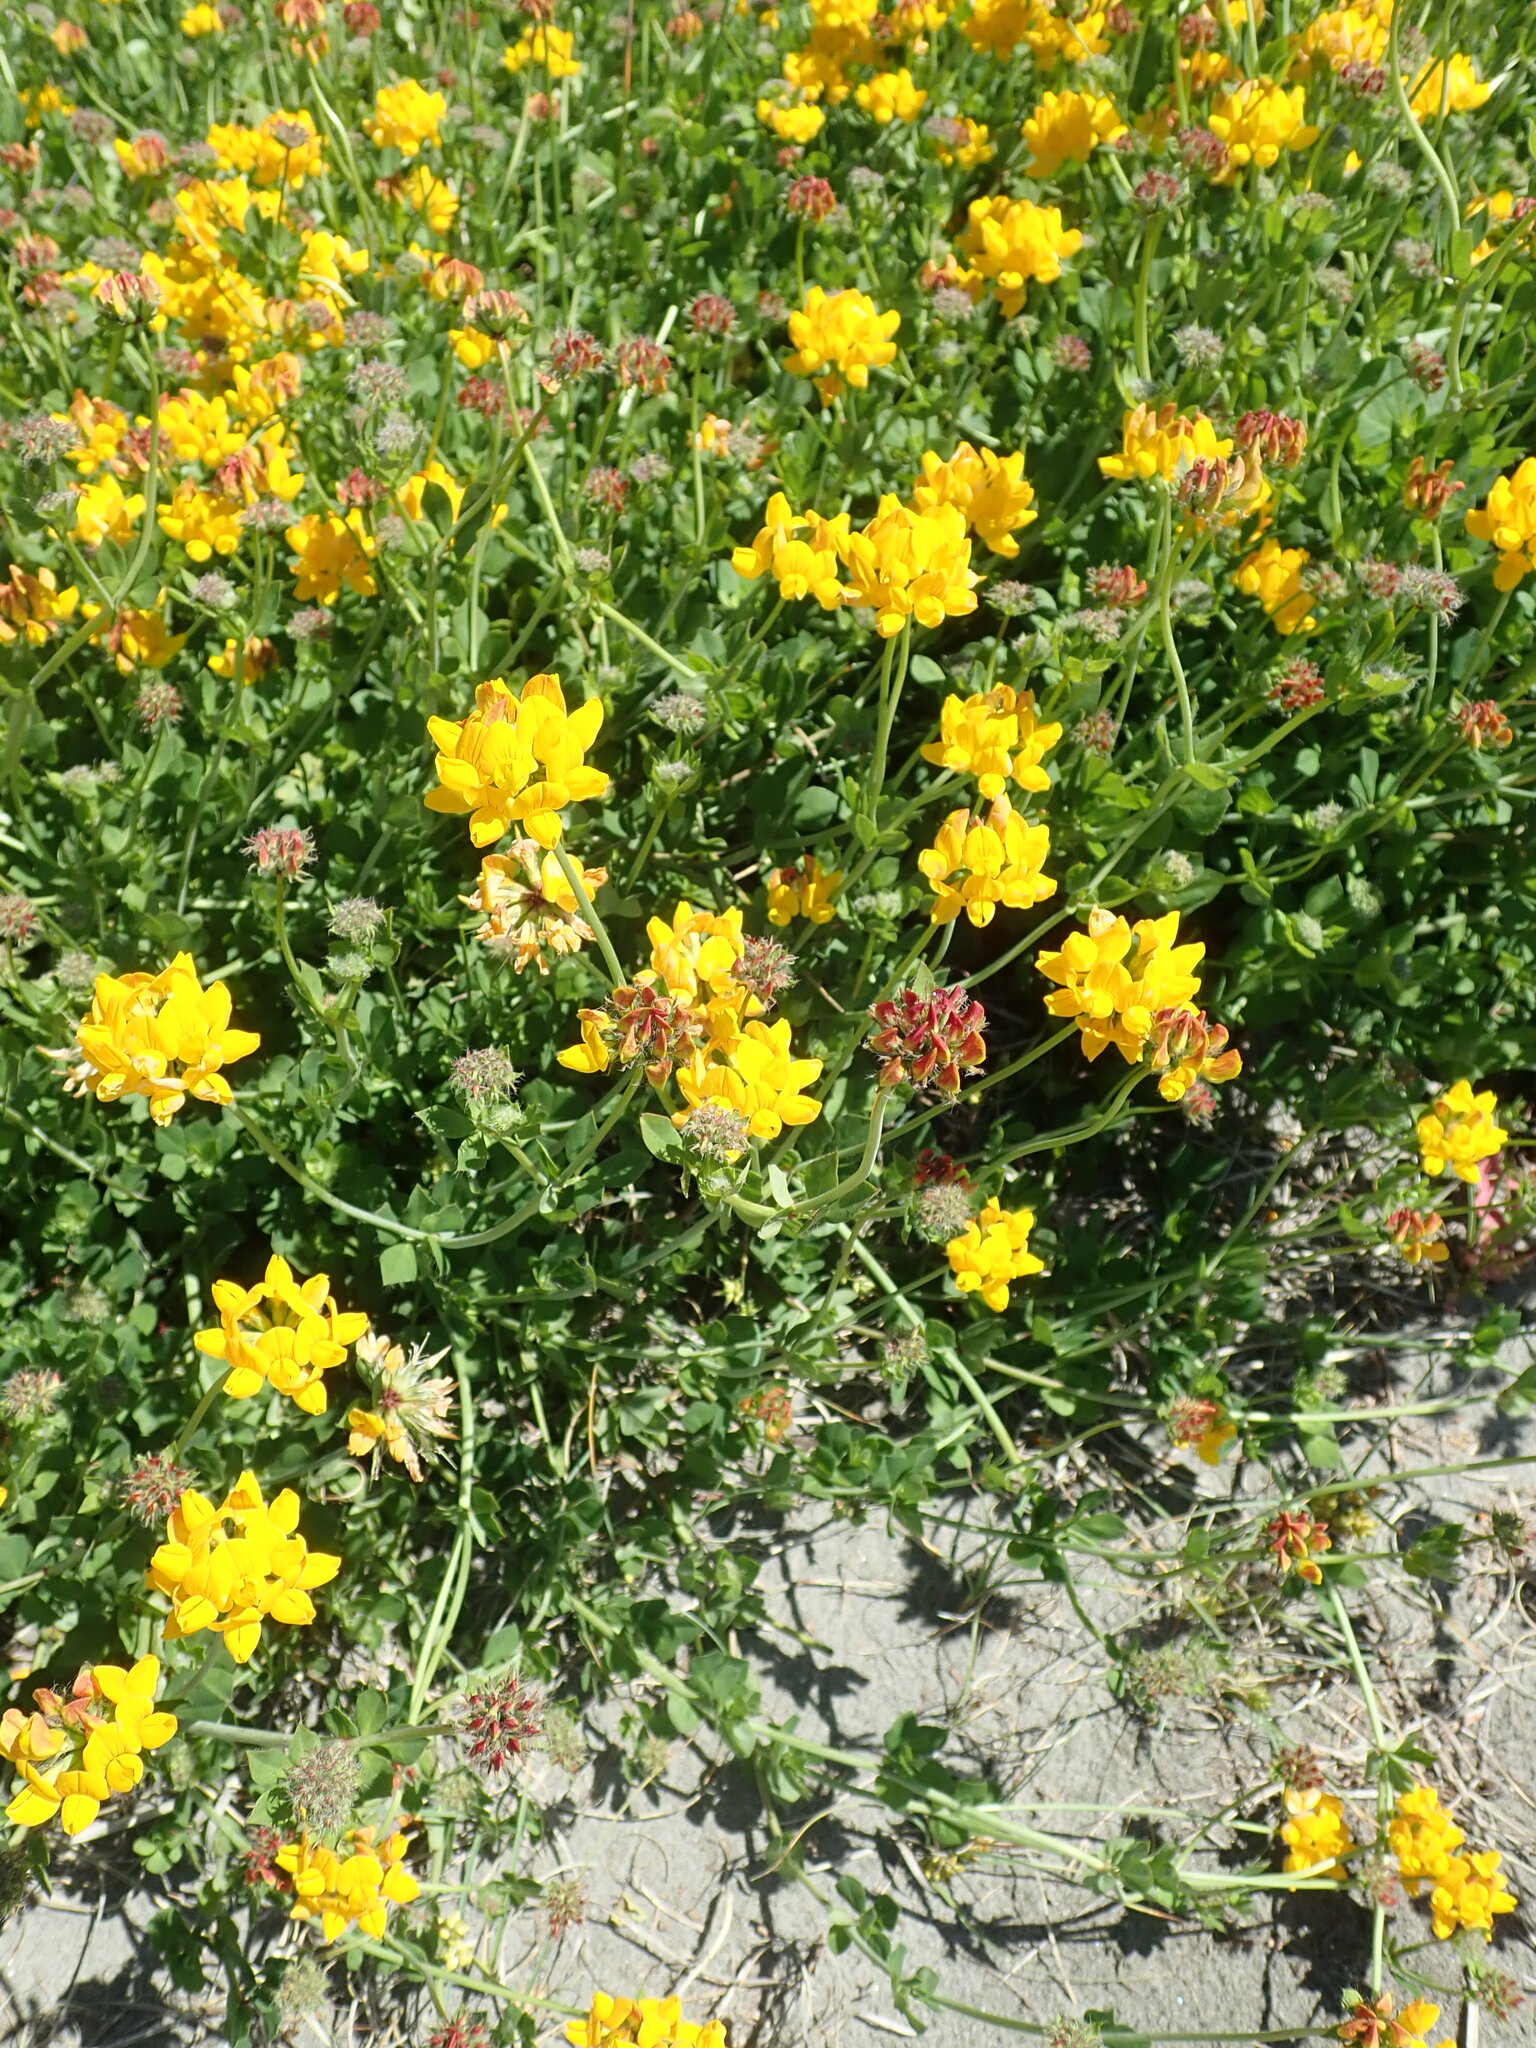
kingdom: Plantae
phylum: Tracheophyta
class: Magnoliopsida
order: Fabales
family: Fabaceae
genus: Lotus
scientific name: Lotus pedunculatus
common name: Greater birdsfoot-trefoil
